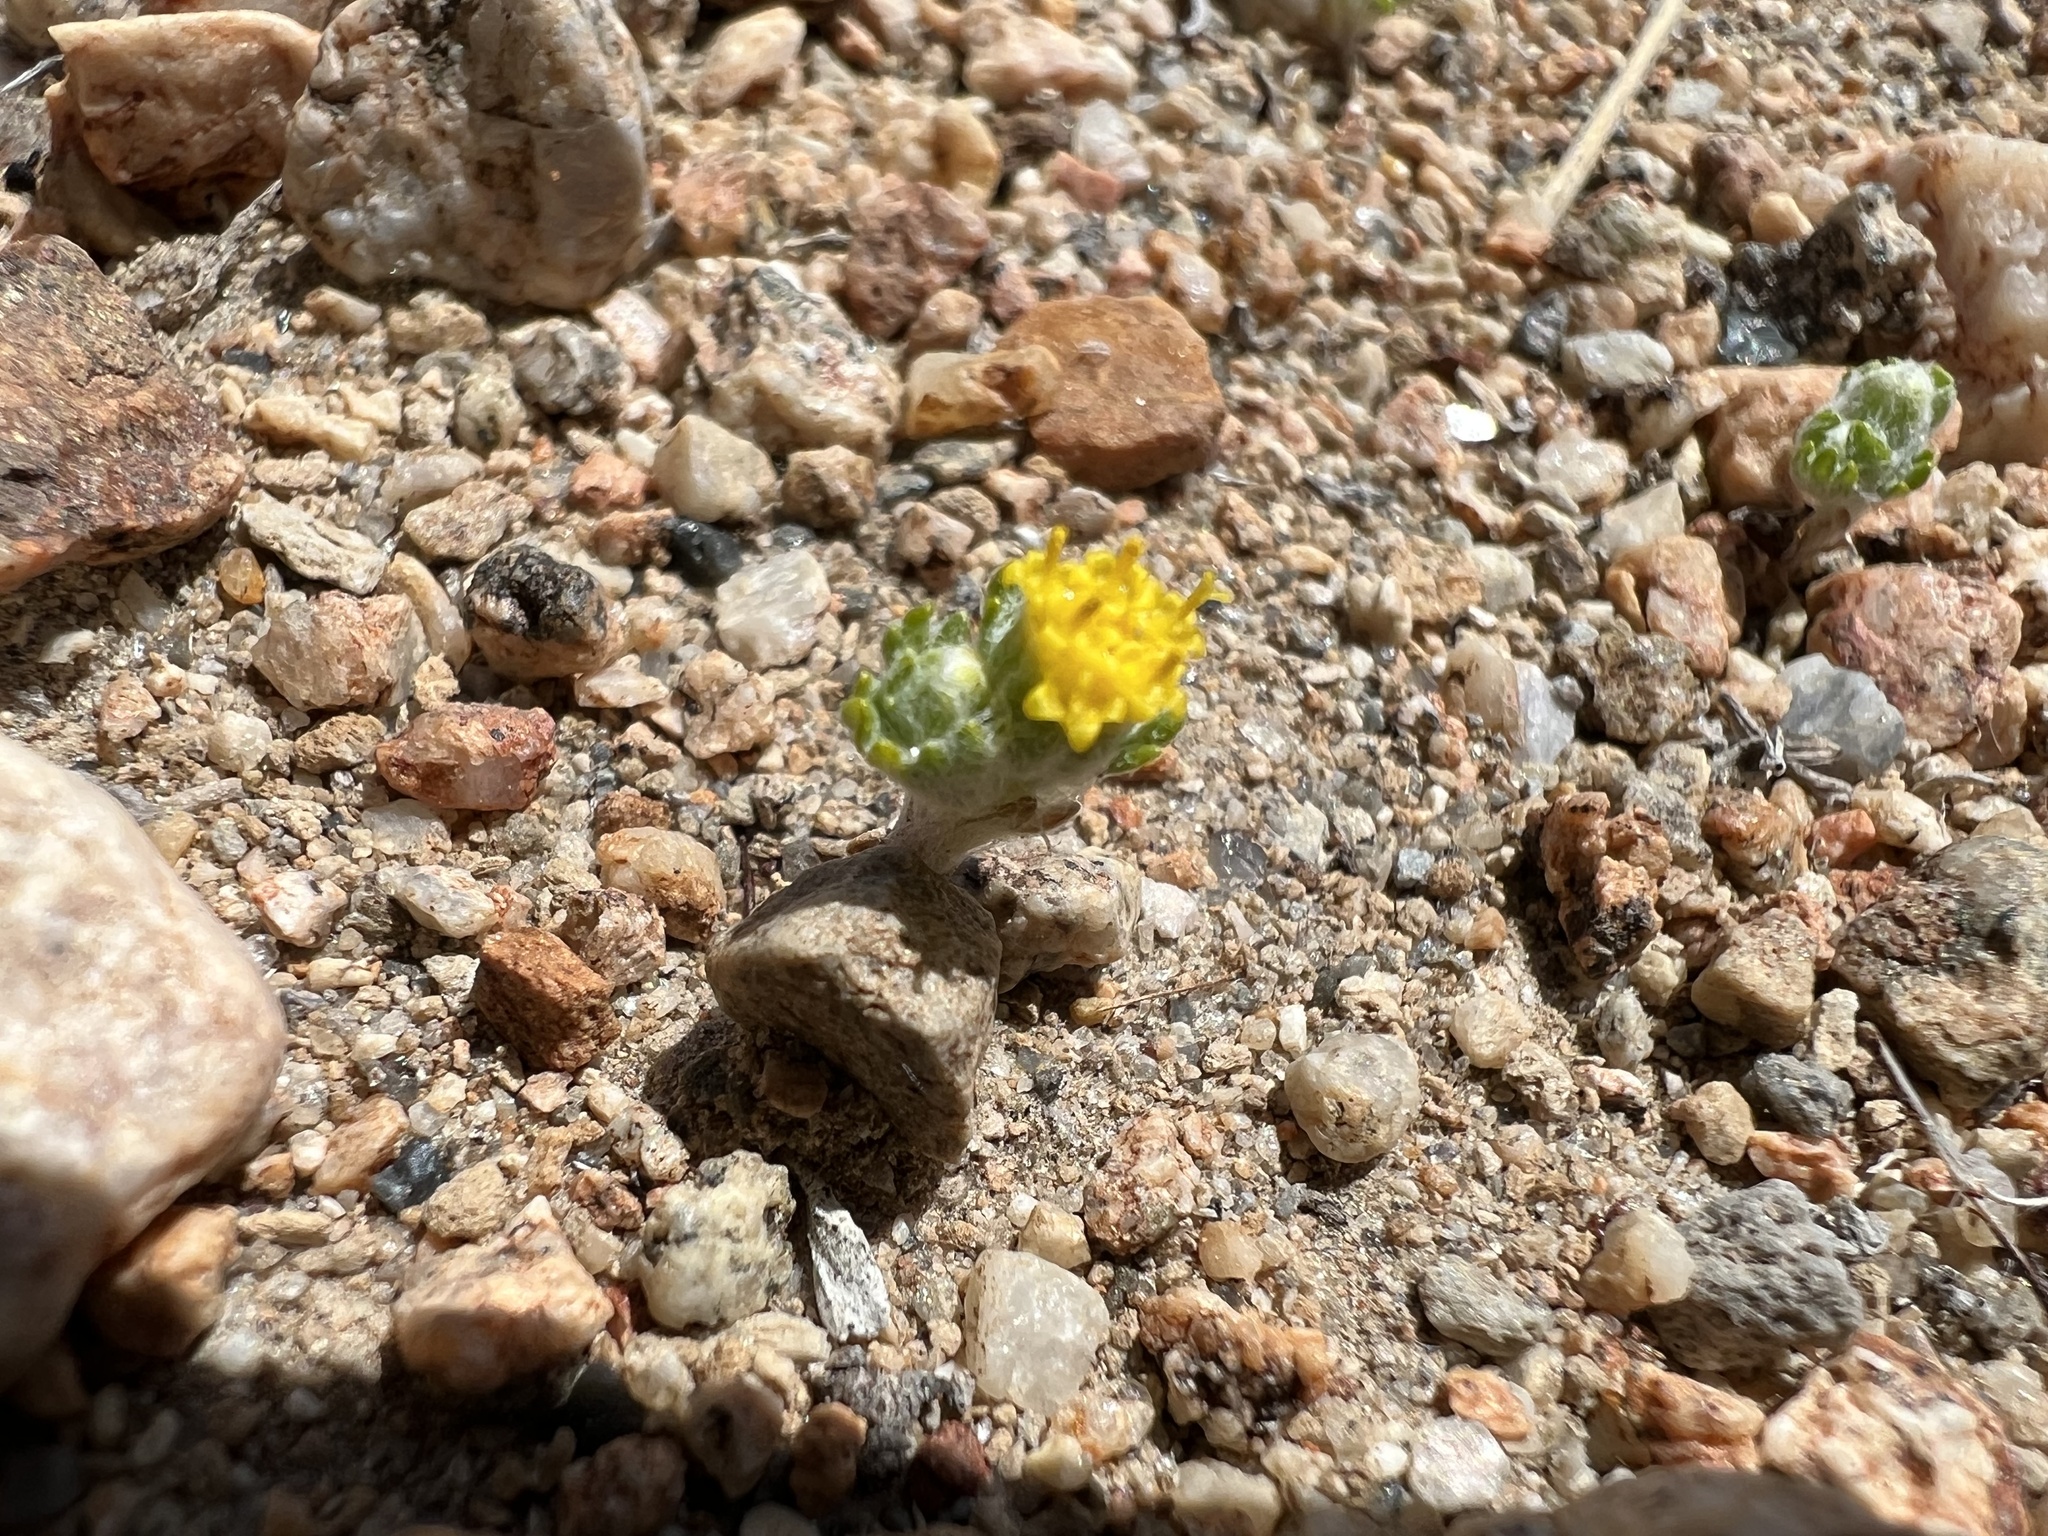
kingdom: Plantae
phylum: Tracheophyta
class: Magnoliopsida
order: Asterales
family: Asteraceae
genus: Eriophyllum
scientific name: Eriophyllum pringlei
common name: Pringle's woolly-sunflower
